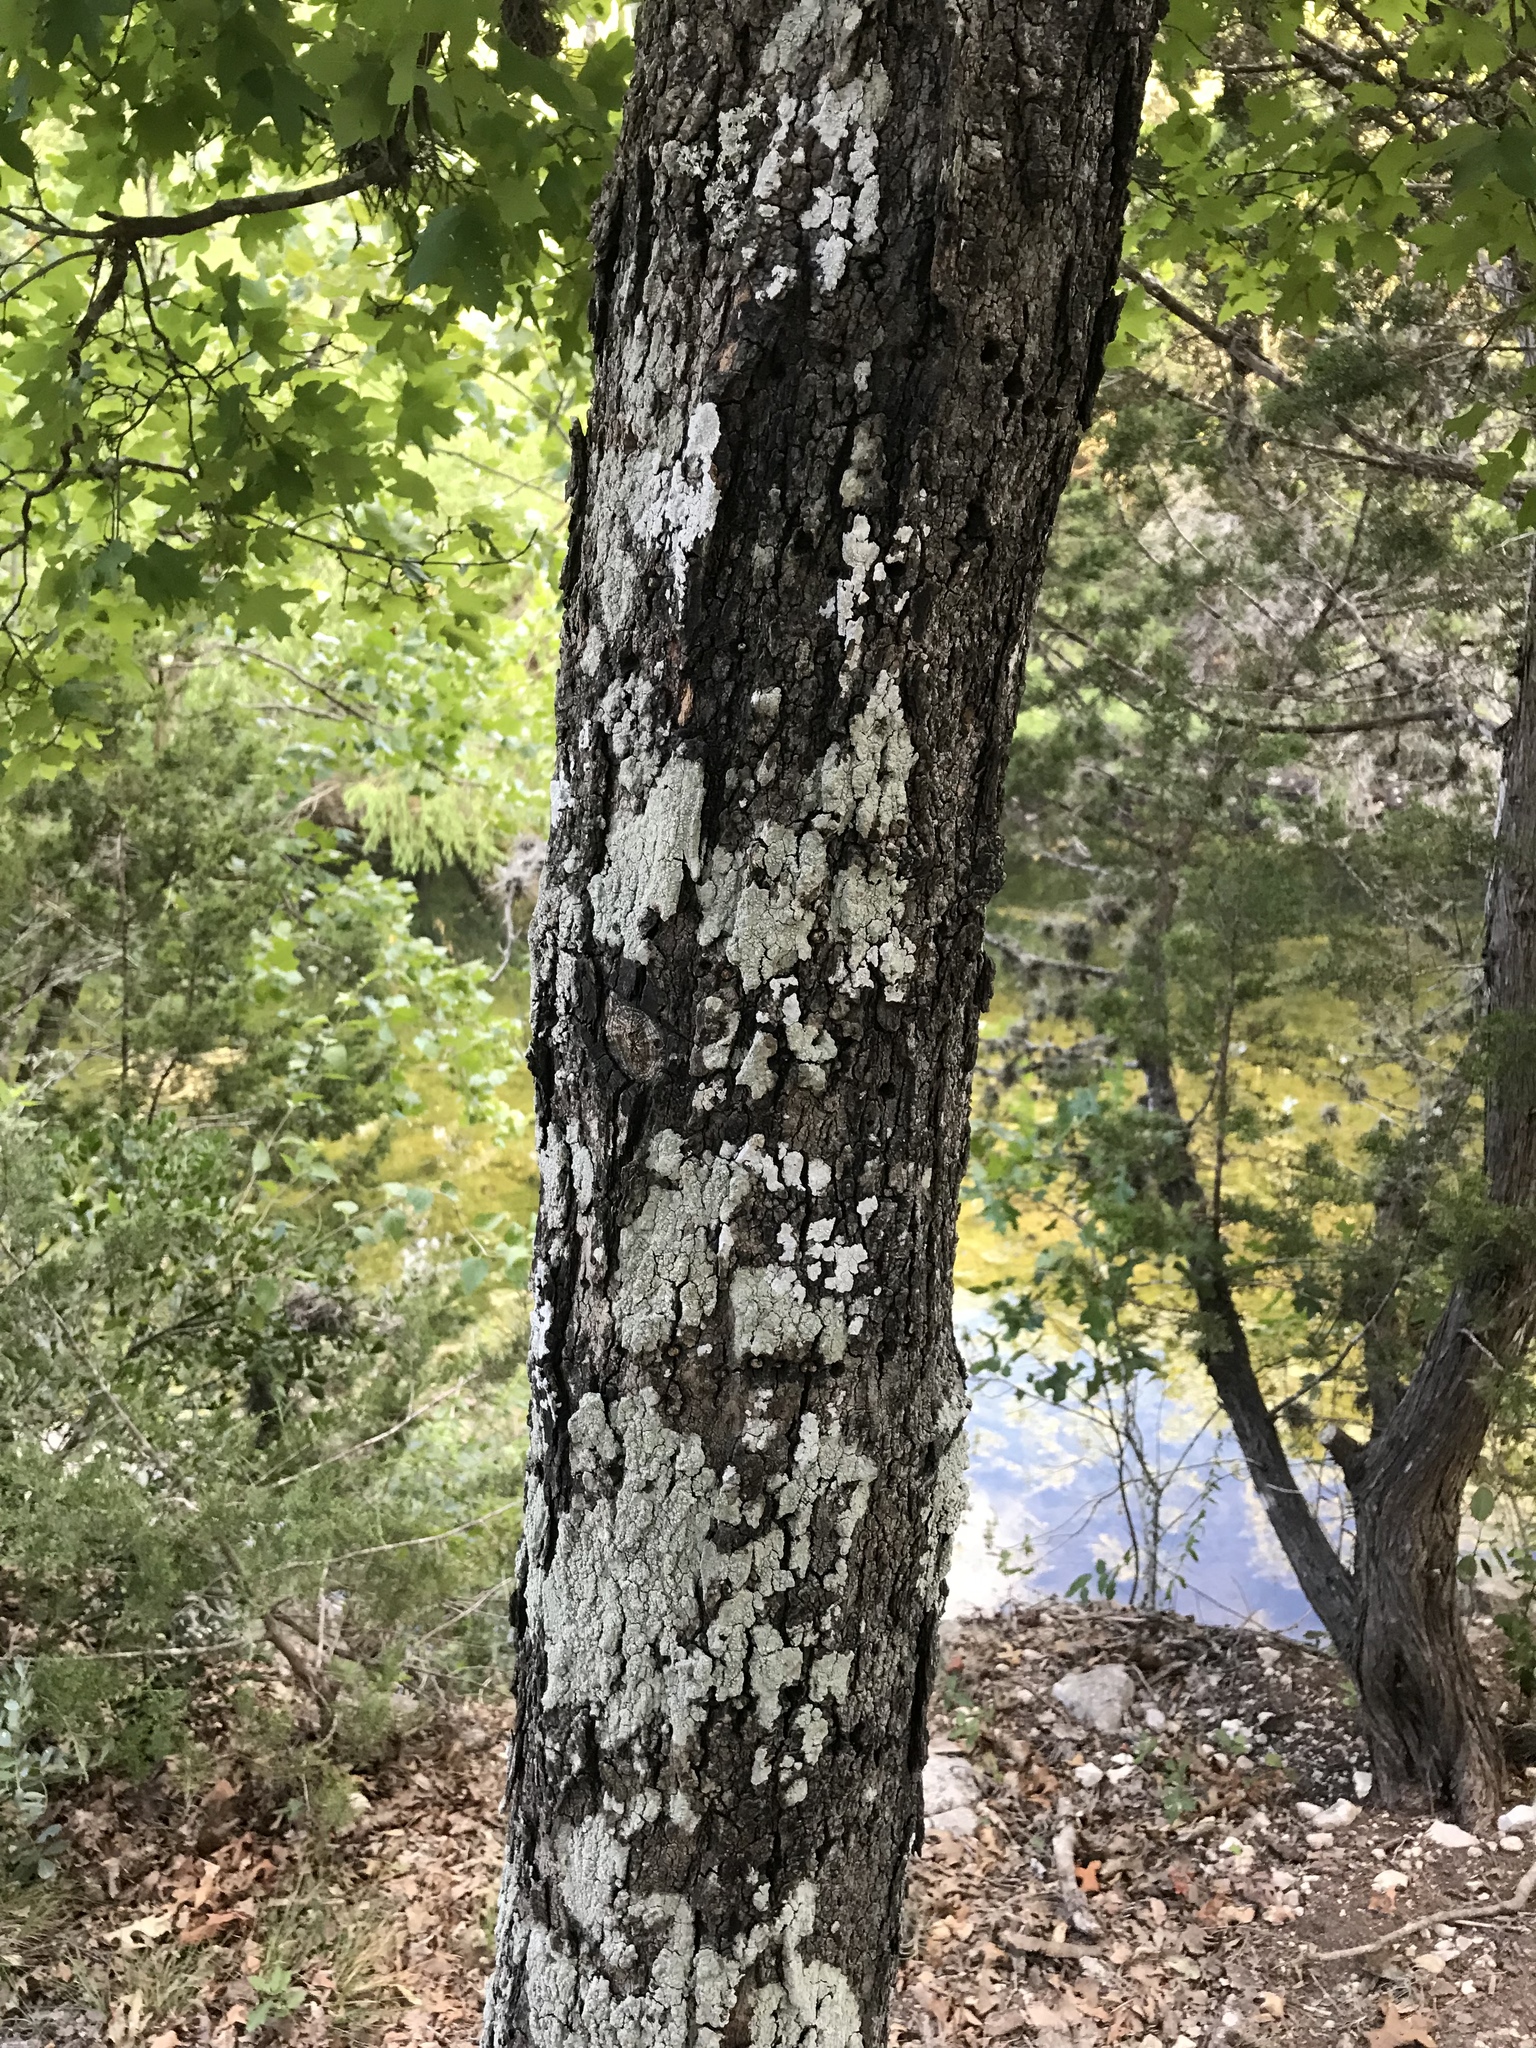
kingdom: Plantae
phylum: Tracheophyta
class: Magnoliopsida
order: Sapindales
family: Sapindaceae
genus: Acer
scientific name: Acer grandidentatum
